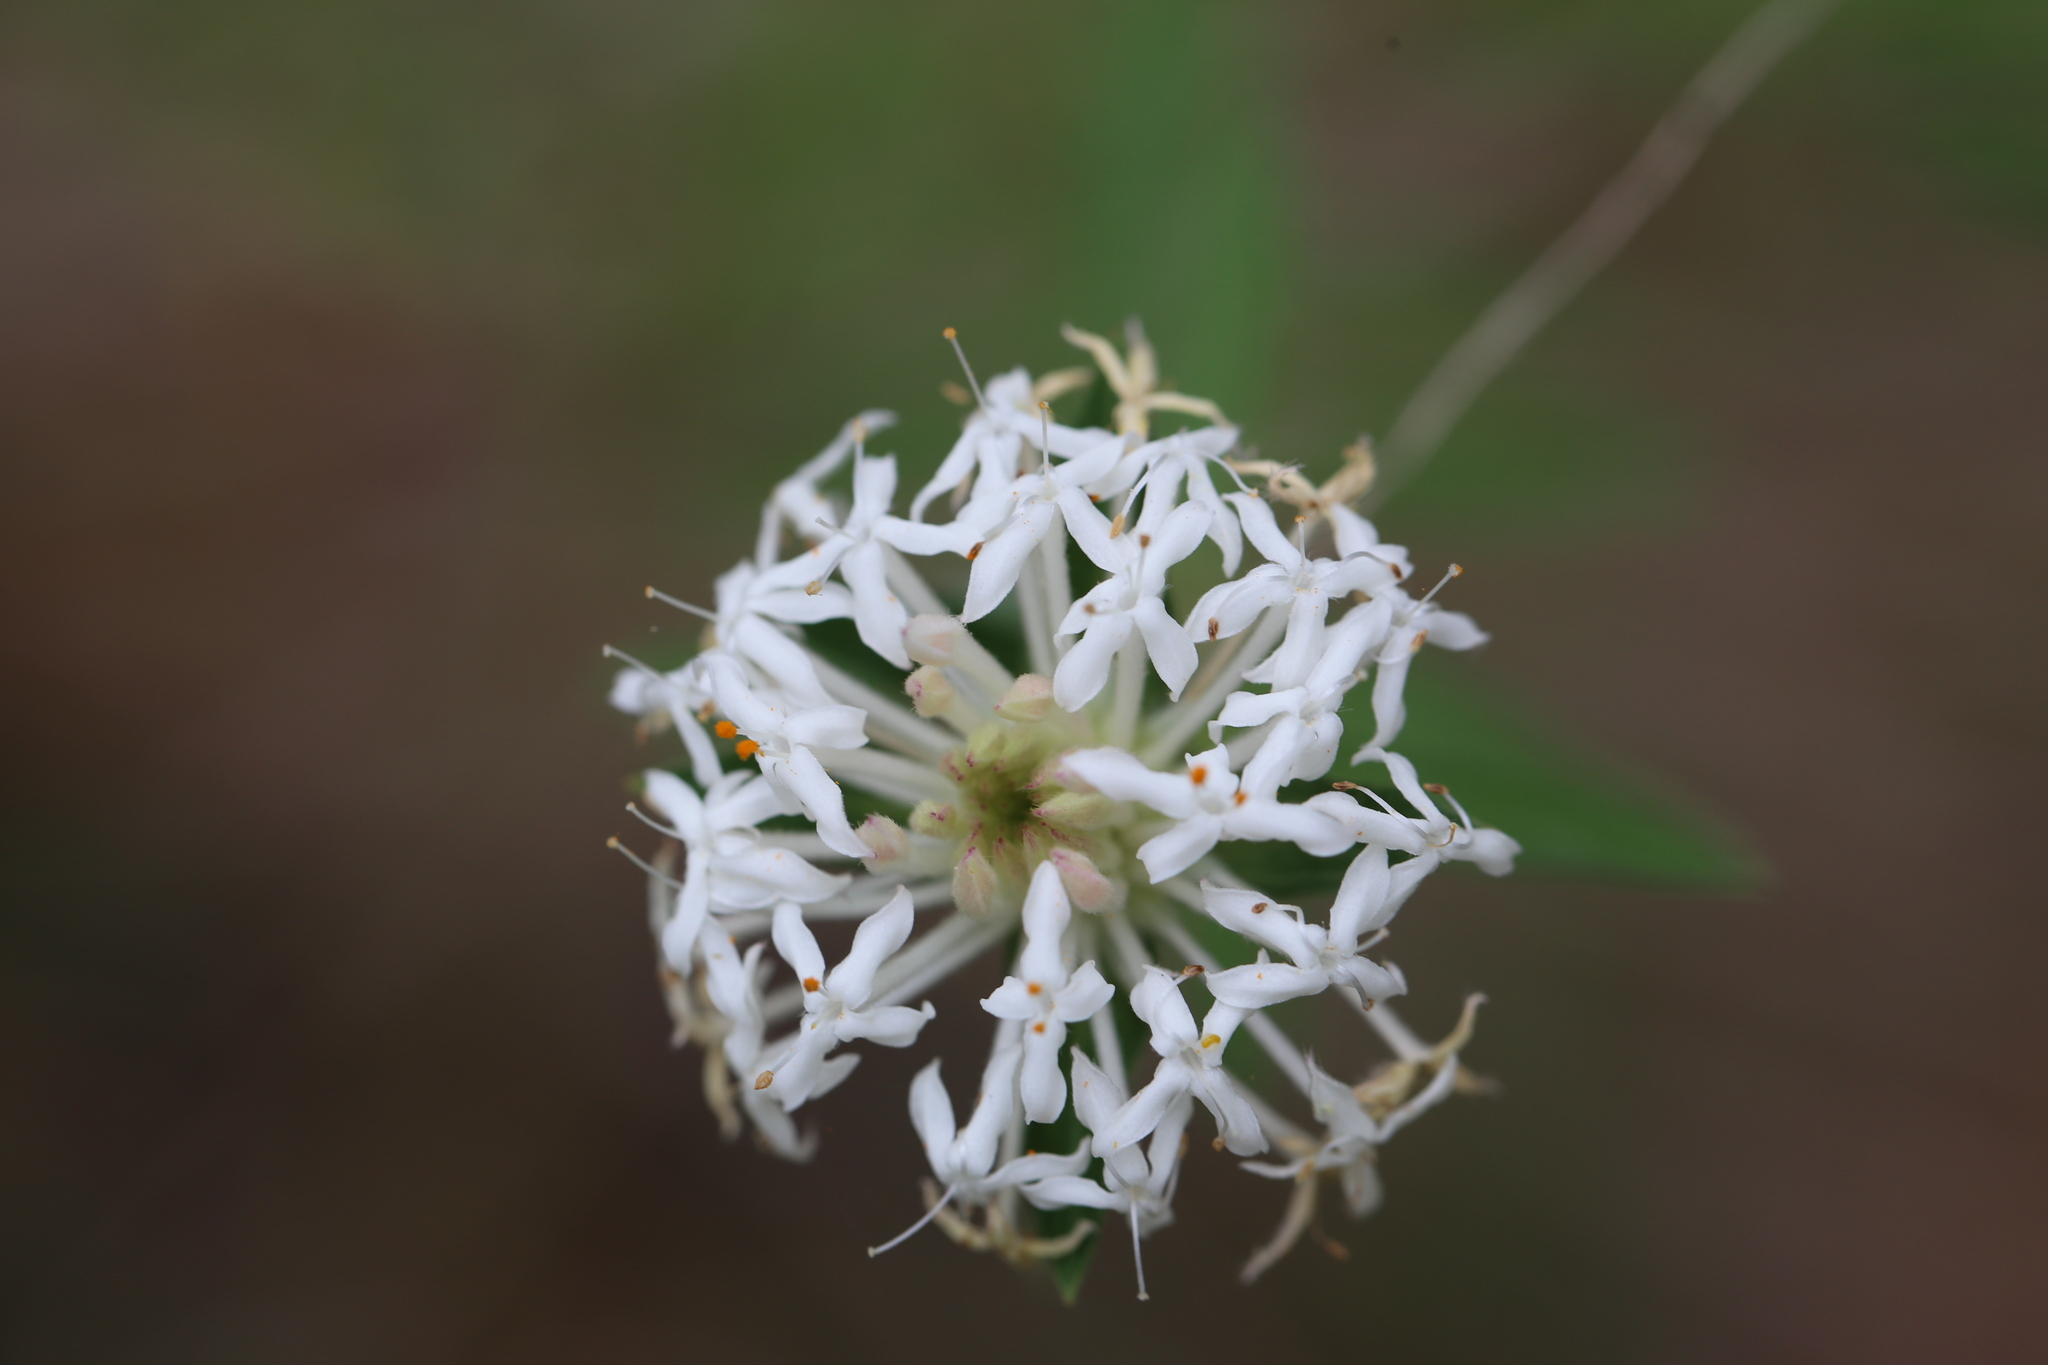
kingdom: Plantae
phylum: Tracheophyta
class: Magnoliopsida
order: Malvales
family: Thymelaeaceae
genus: Pimelea
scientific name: Pimelea linifolia
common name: Queen-of-the-bush
